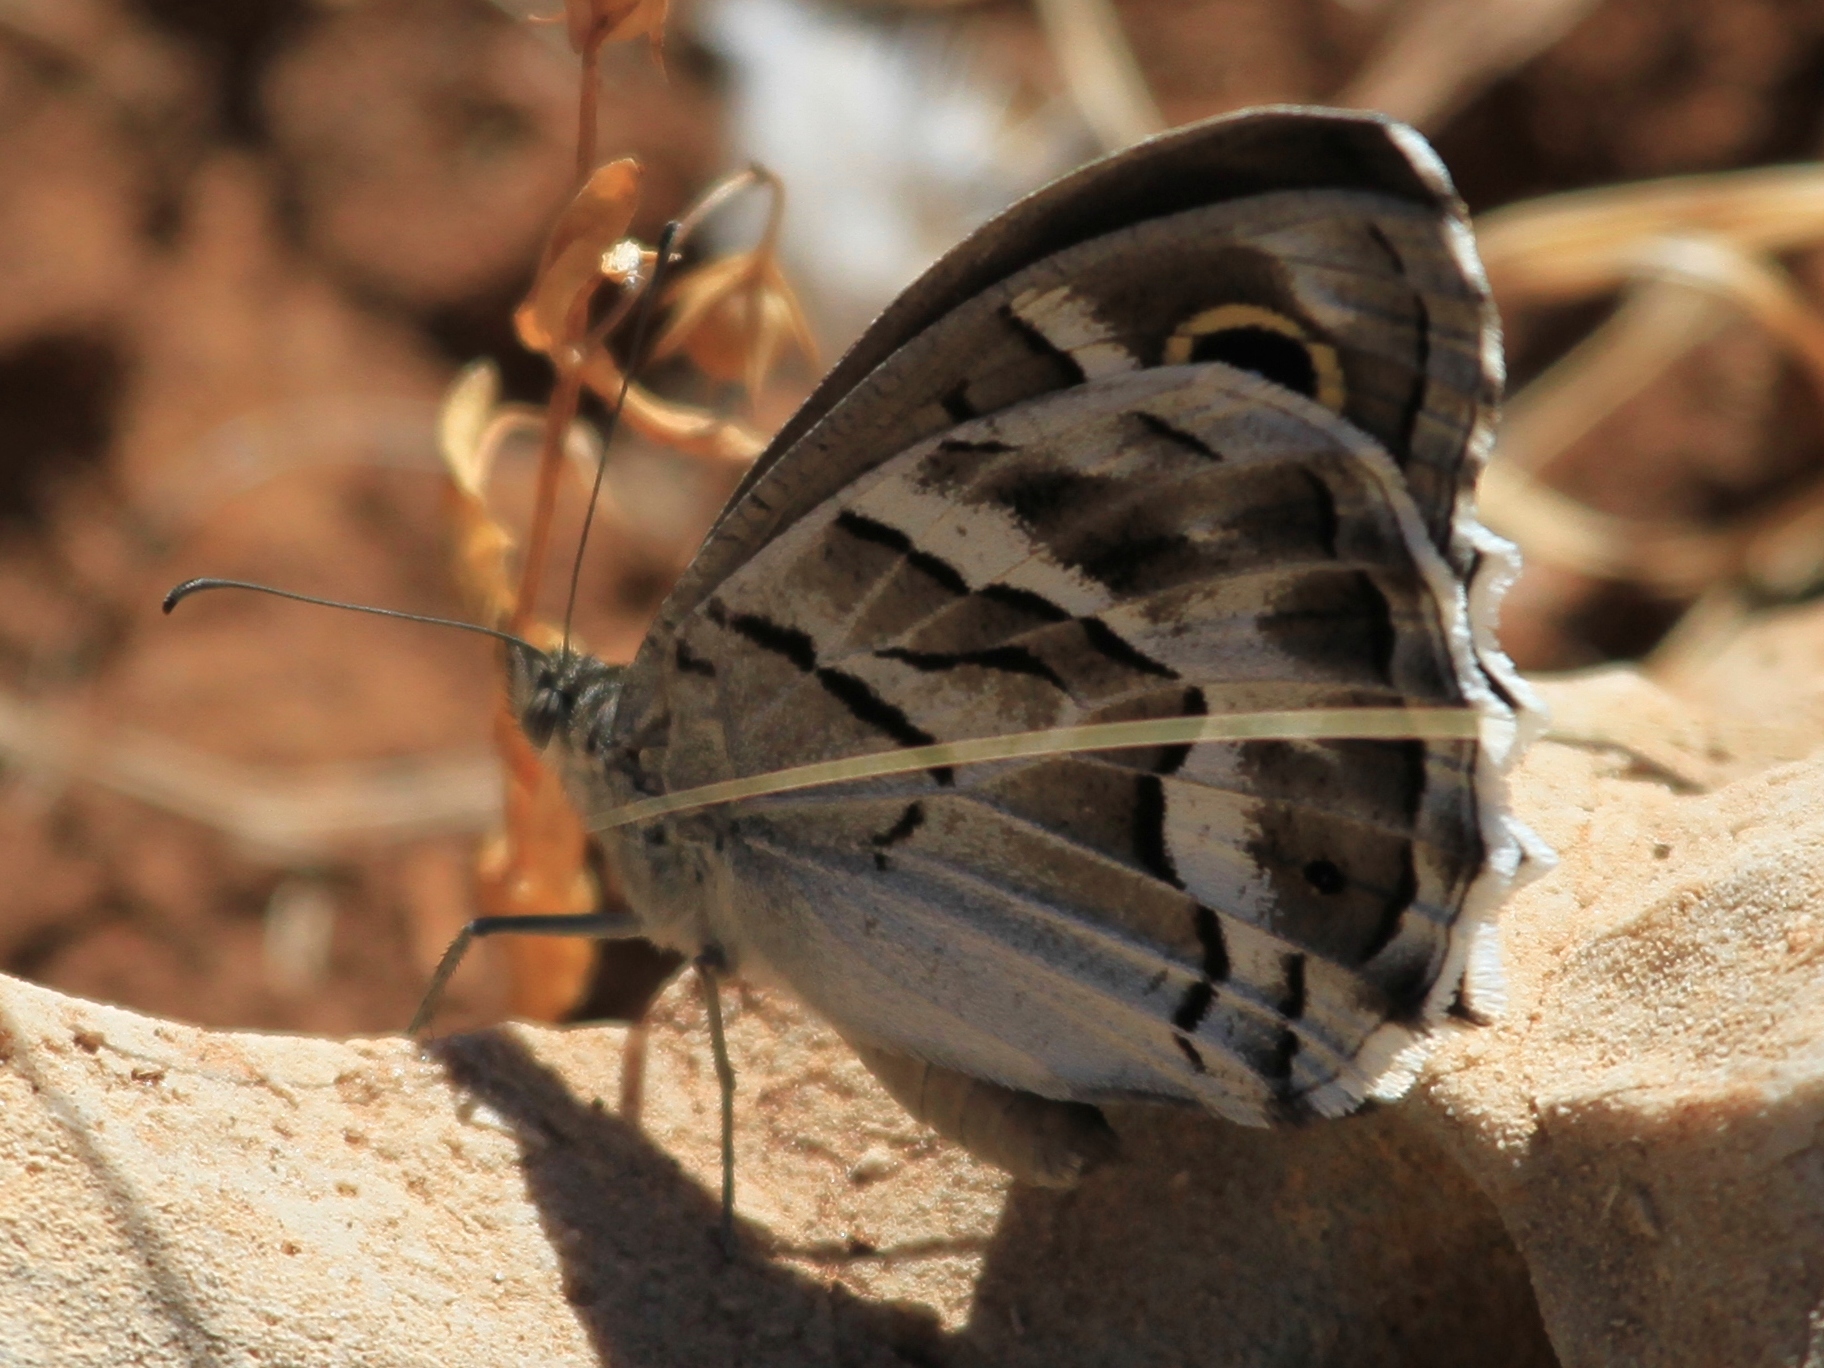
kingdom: Animalia
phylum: Arthropoda
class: Insecta
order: Lepidoptera
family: Nymphalidae
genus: Hipparchia
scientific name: Hipparchia fidia
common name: Striped grayling
